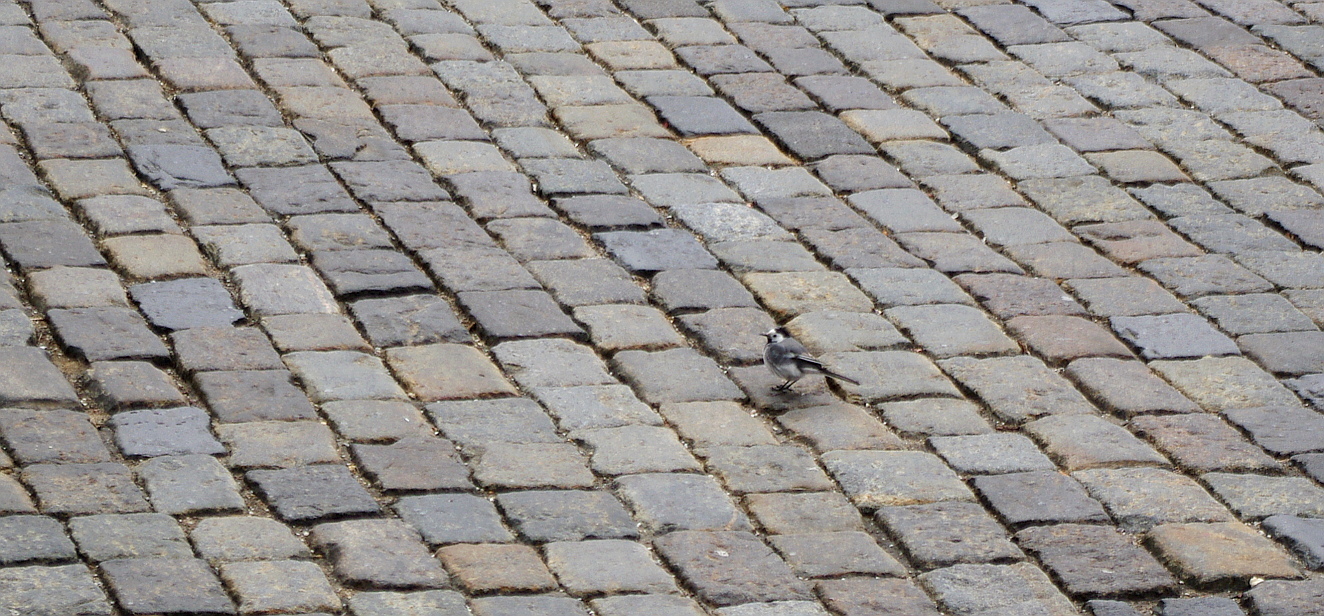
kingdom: Animalia
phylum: Chordata
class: Aves
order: Passeriformes
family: Motacillidae
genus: Motacilla
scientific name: Motacilla alba
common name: White wagtail
